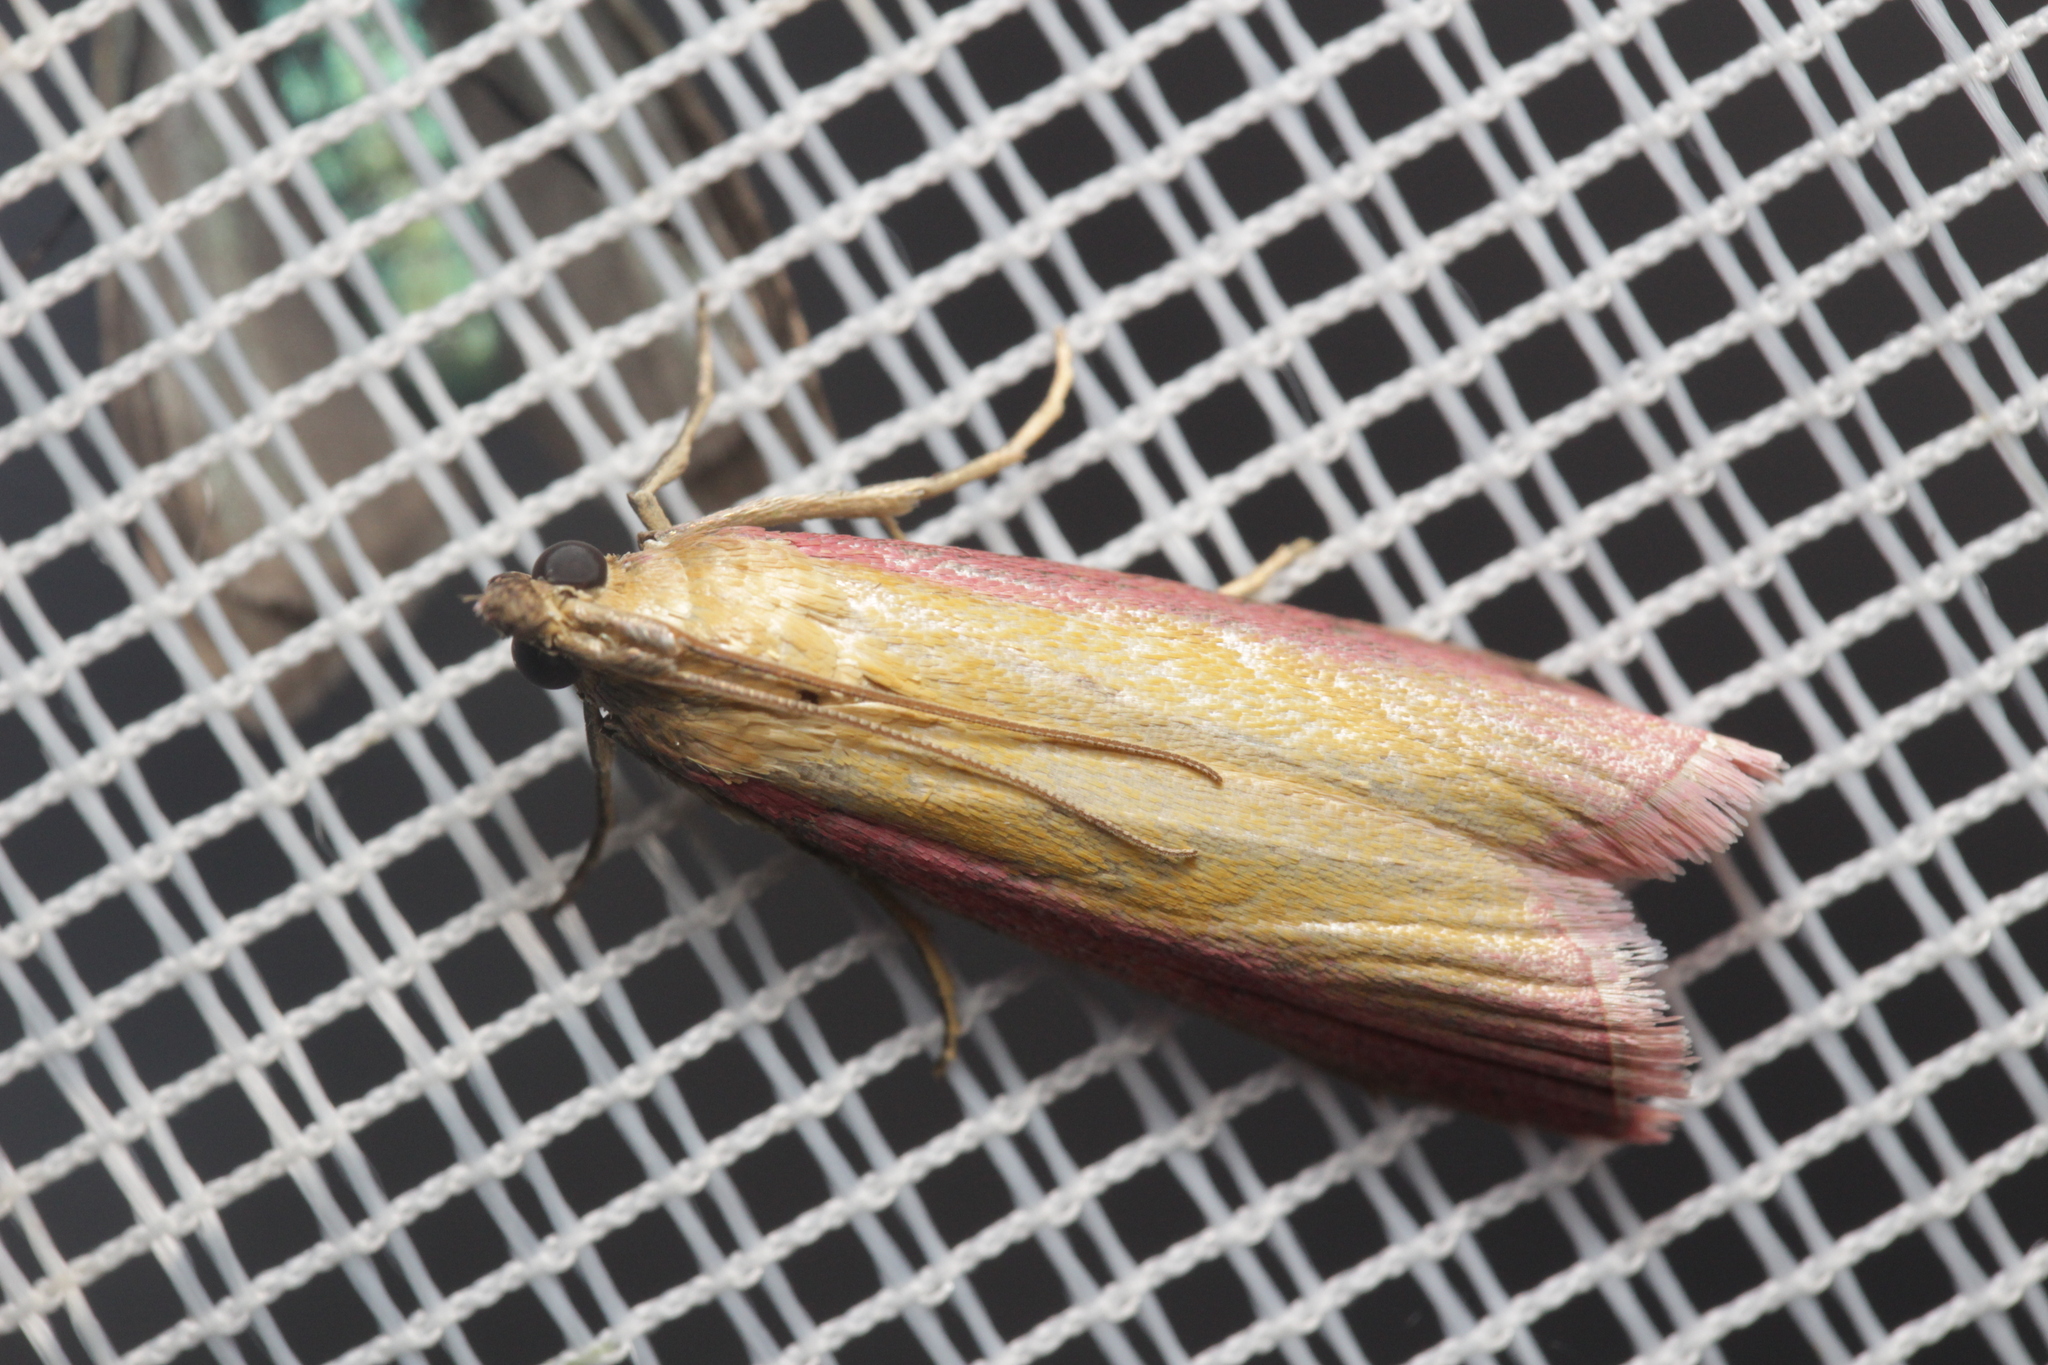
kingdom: Animalia
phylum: Arthropoda
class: Insecta
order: Lepidoptera
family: Pyralidae
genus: Oncocera
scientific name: Oncocera semirubella
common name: Rosy-striped knot-horn
